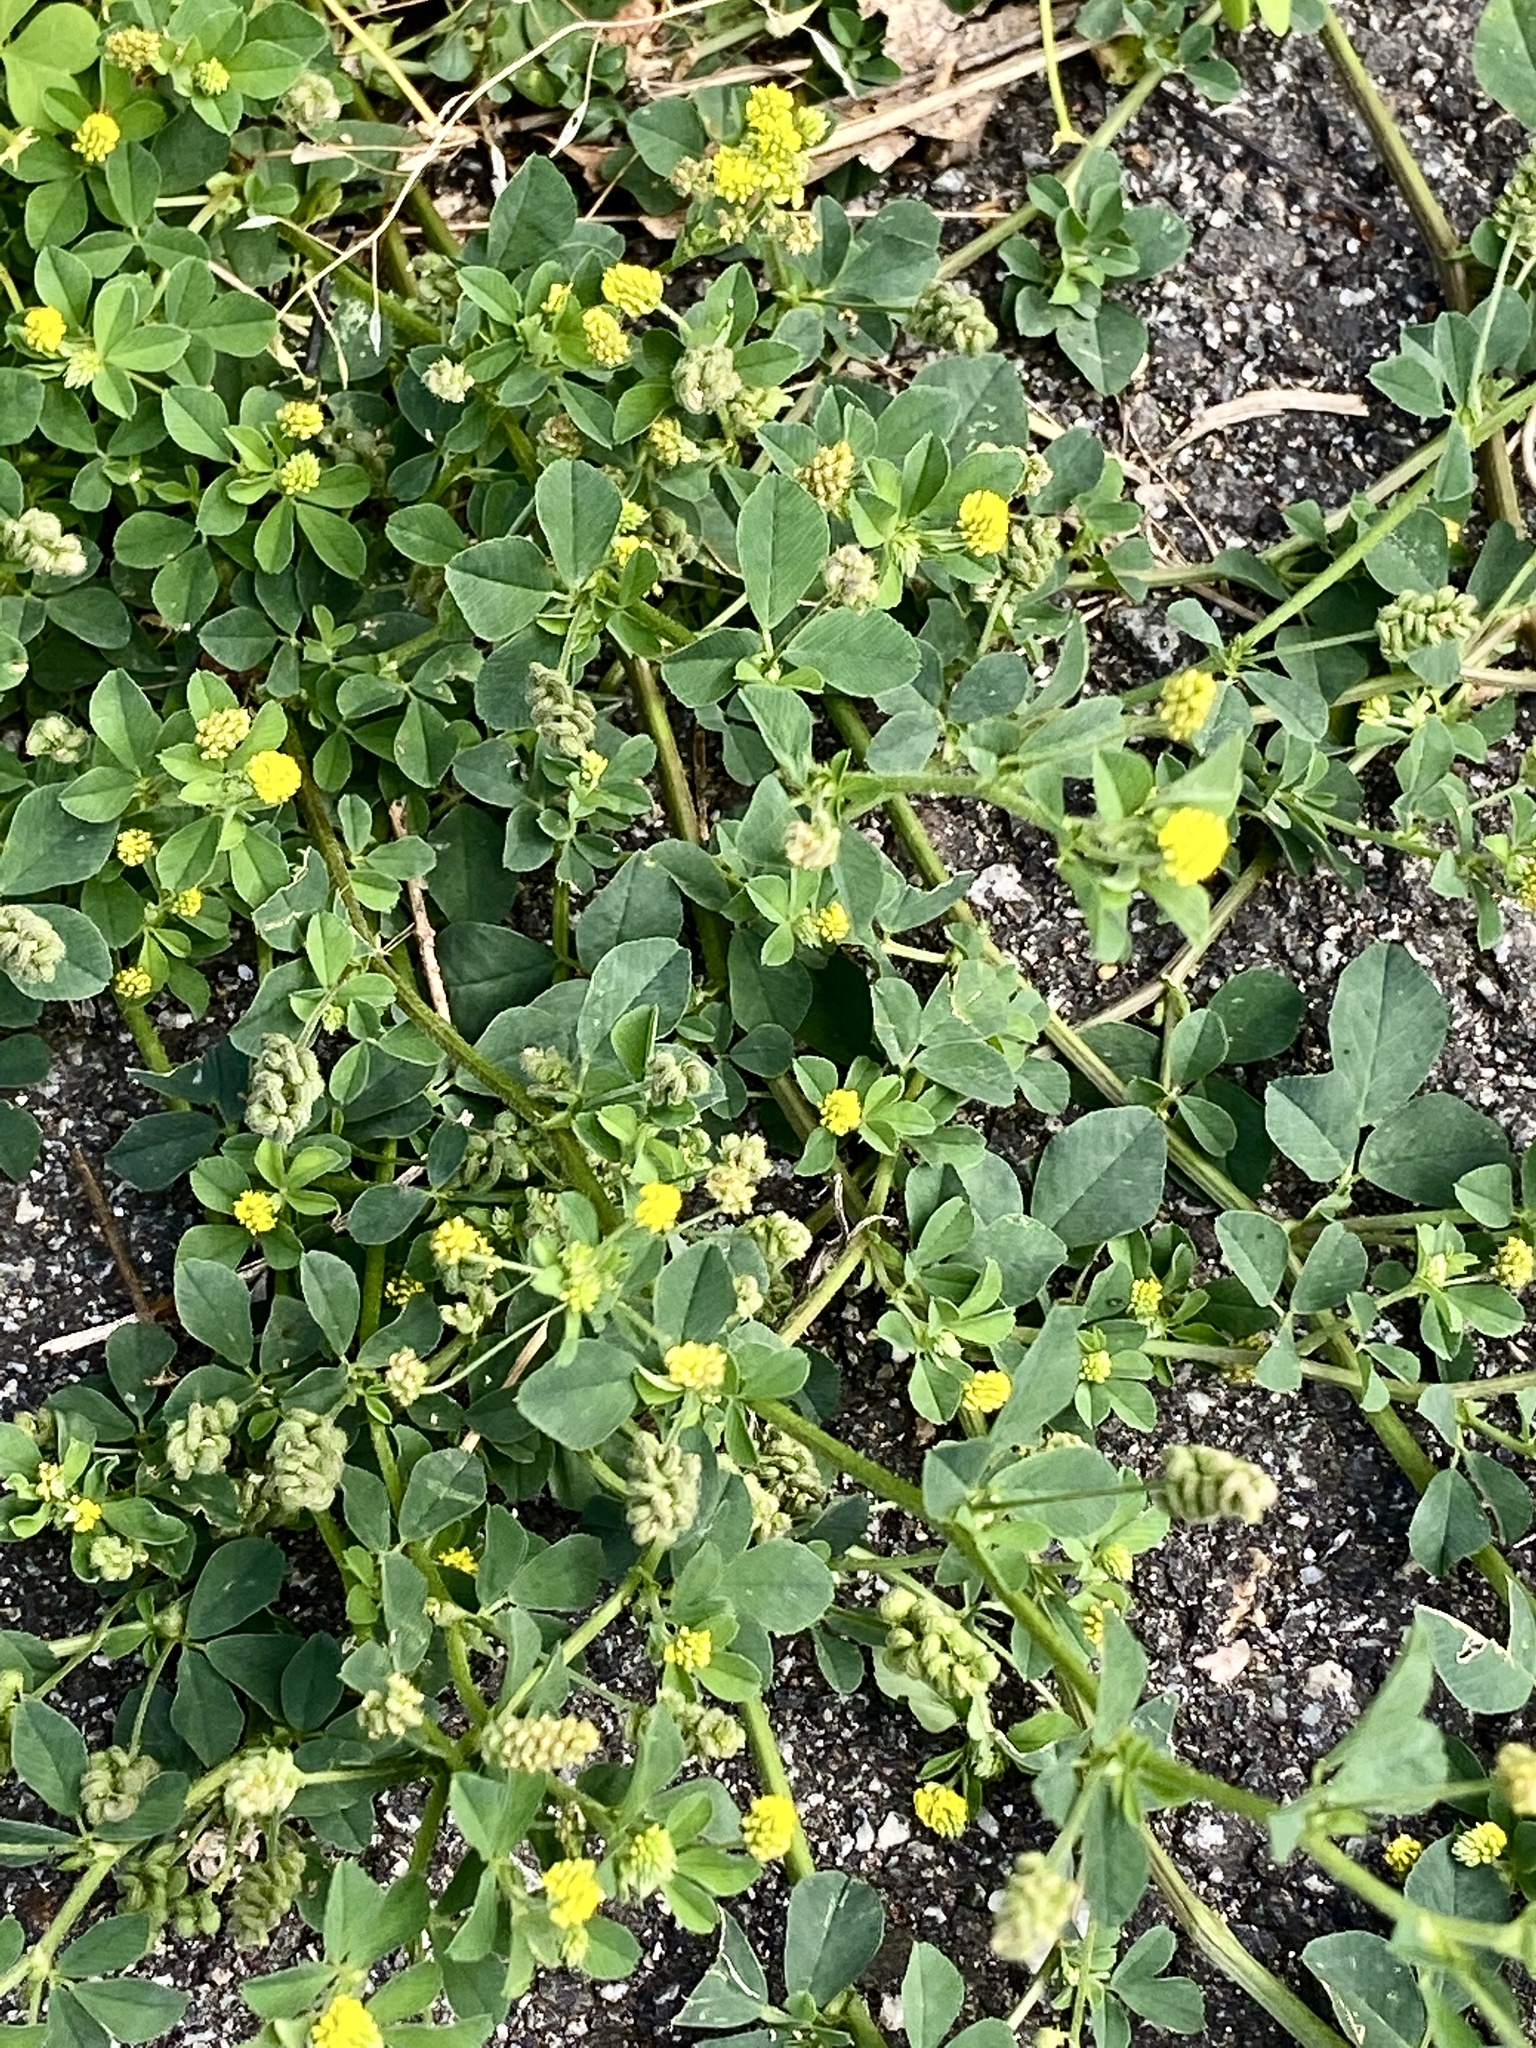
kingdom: Plantae
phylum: Tracheophyta
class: Magnoliopsida
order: Fabales
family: Fabaceae
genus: Medicago
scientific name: Medicago lupulina
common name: Black medick
